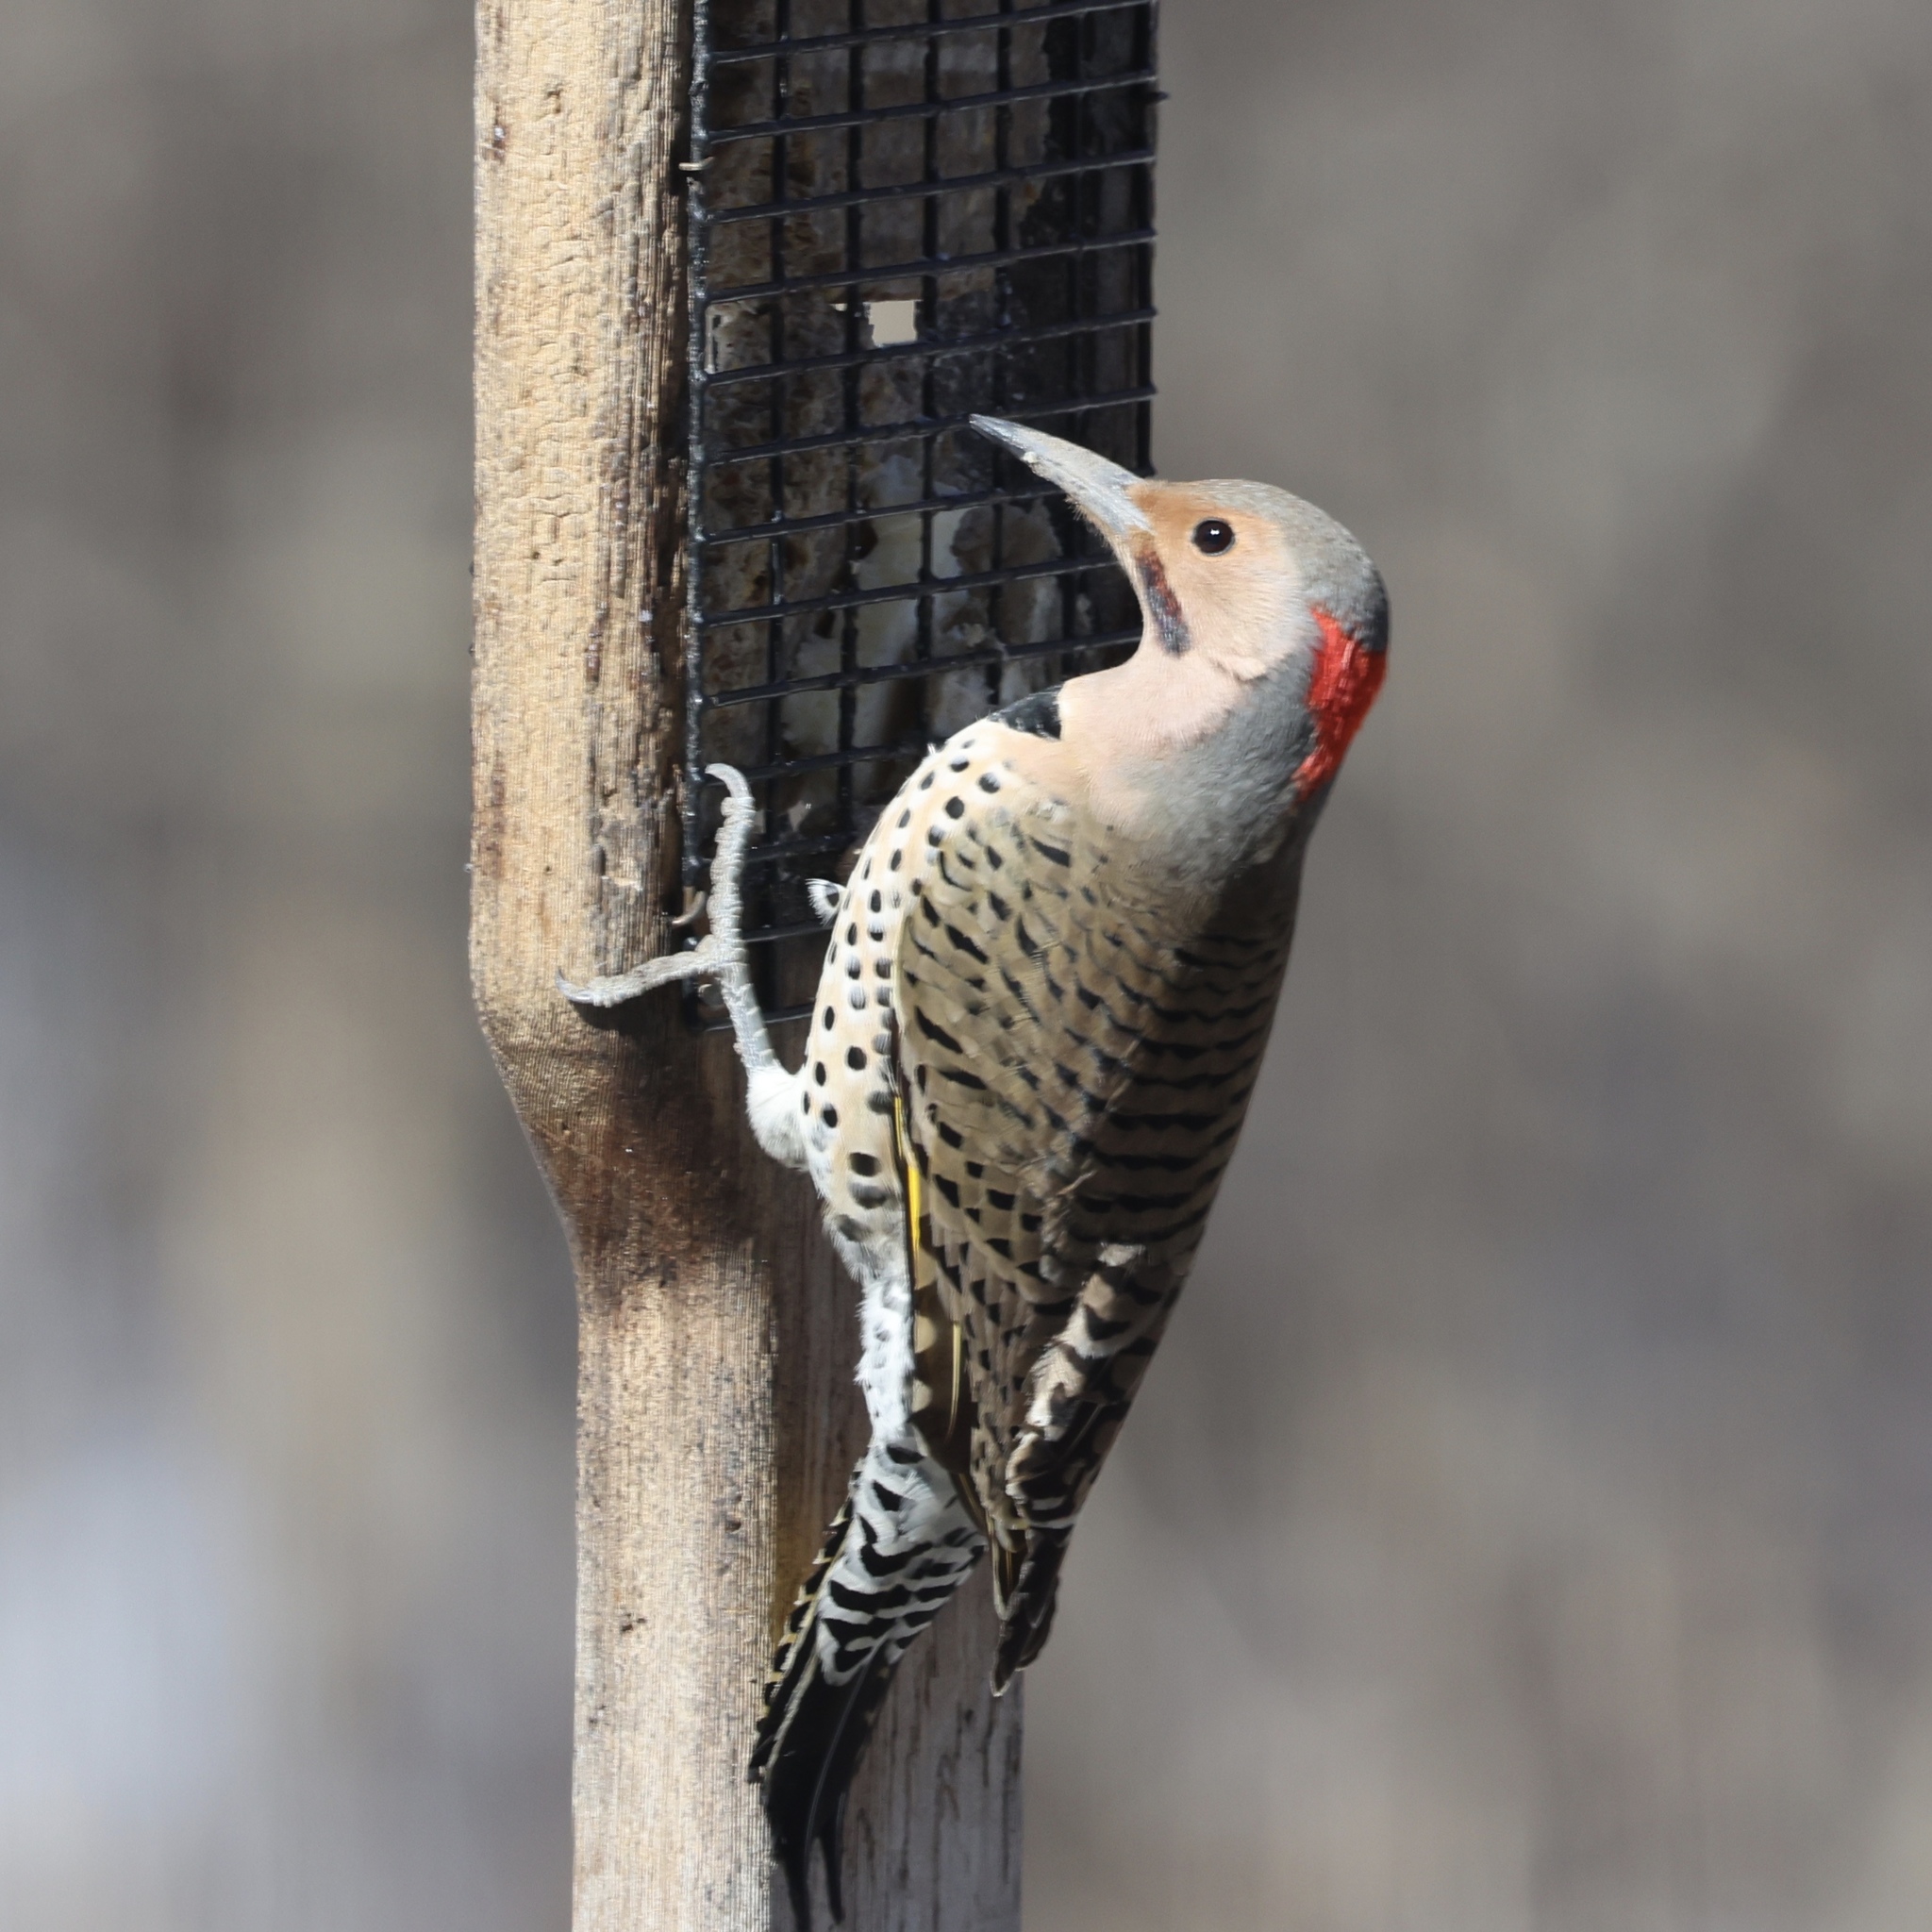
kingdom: Animalia
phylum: Chordata
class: Aves
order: Piciformes
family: Picidae
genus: Colaptes
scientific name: Colaptes auratus
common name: Northern flicker
